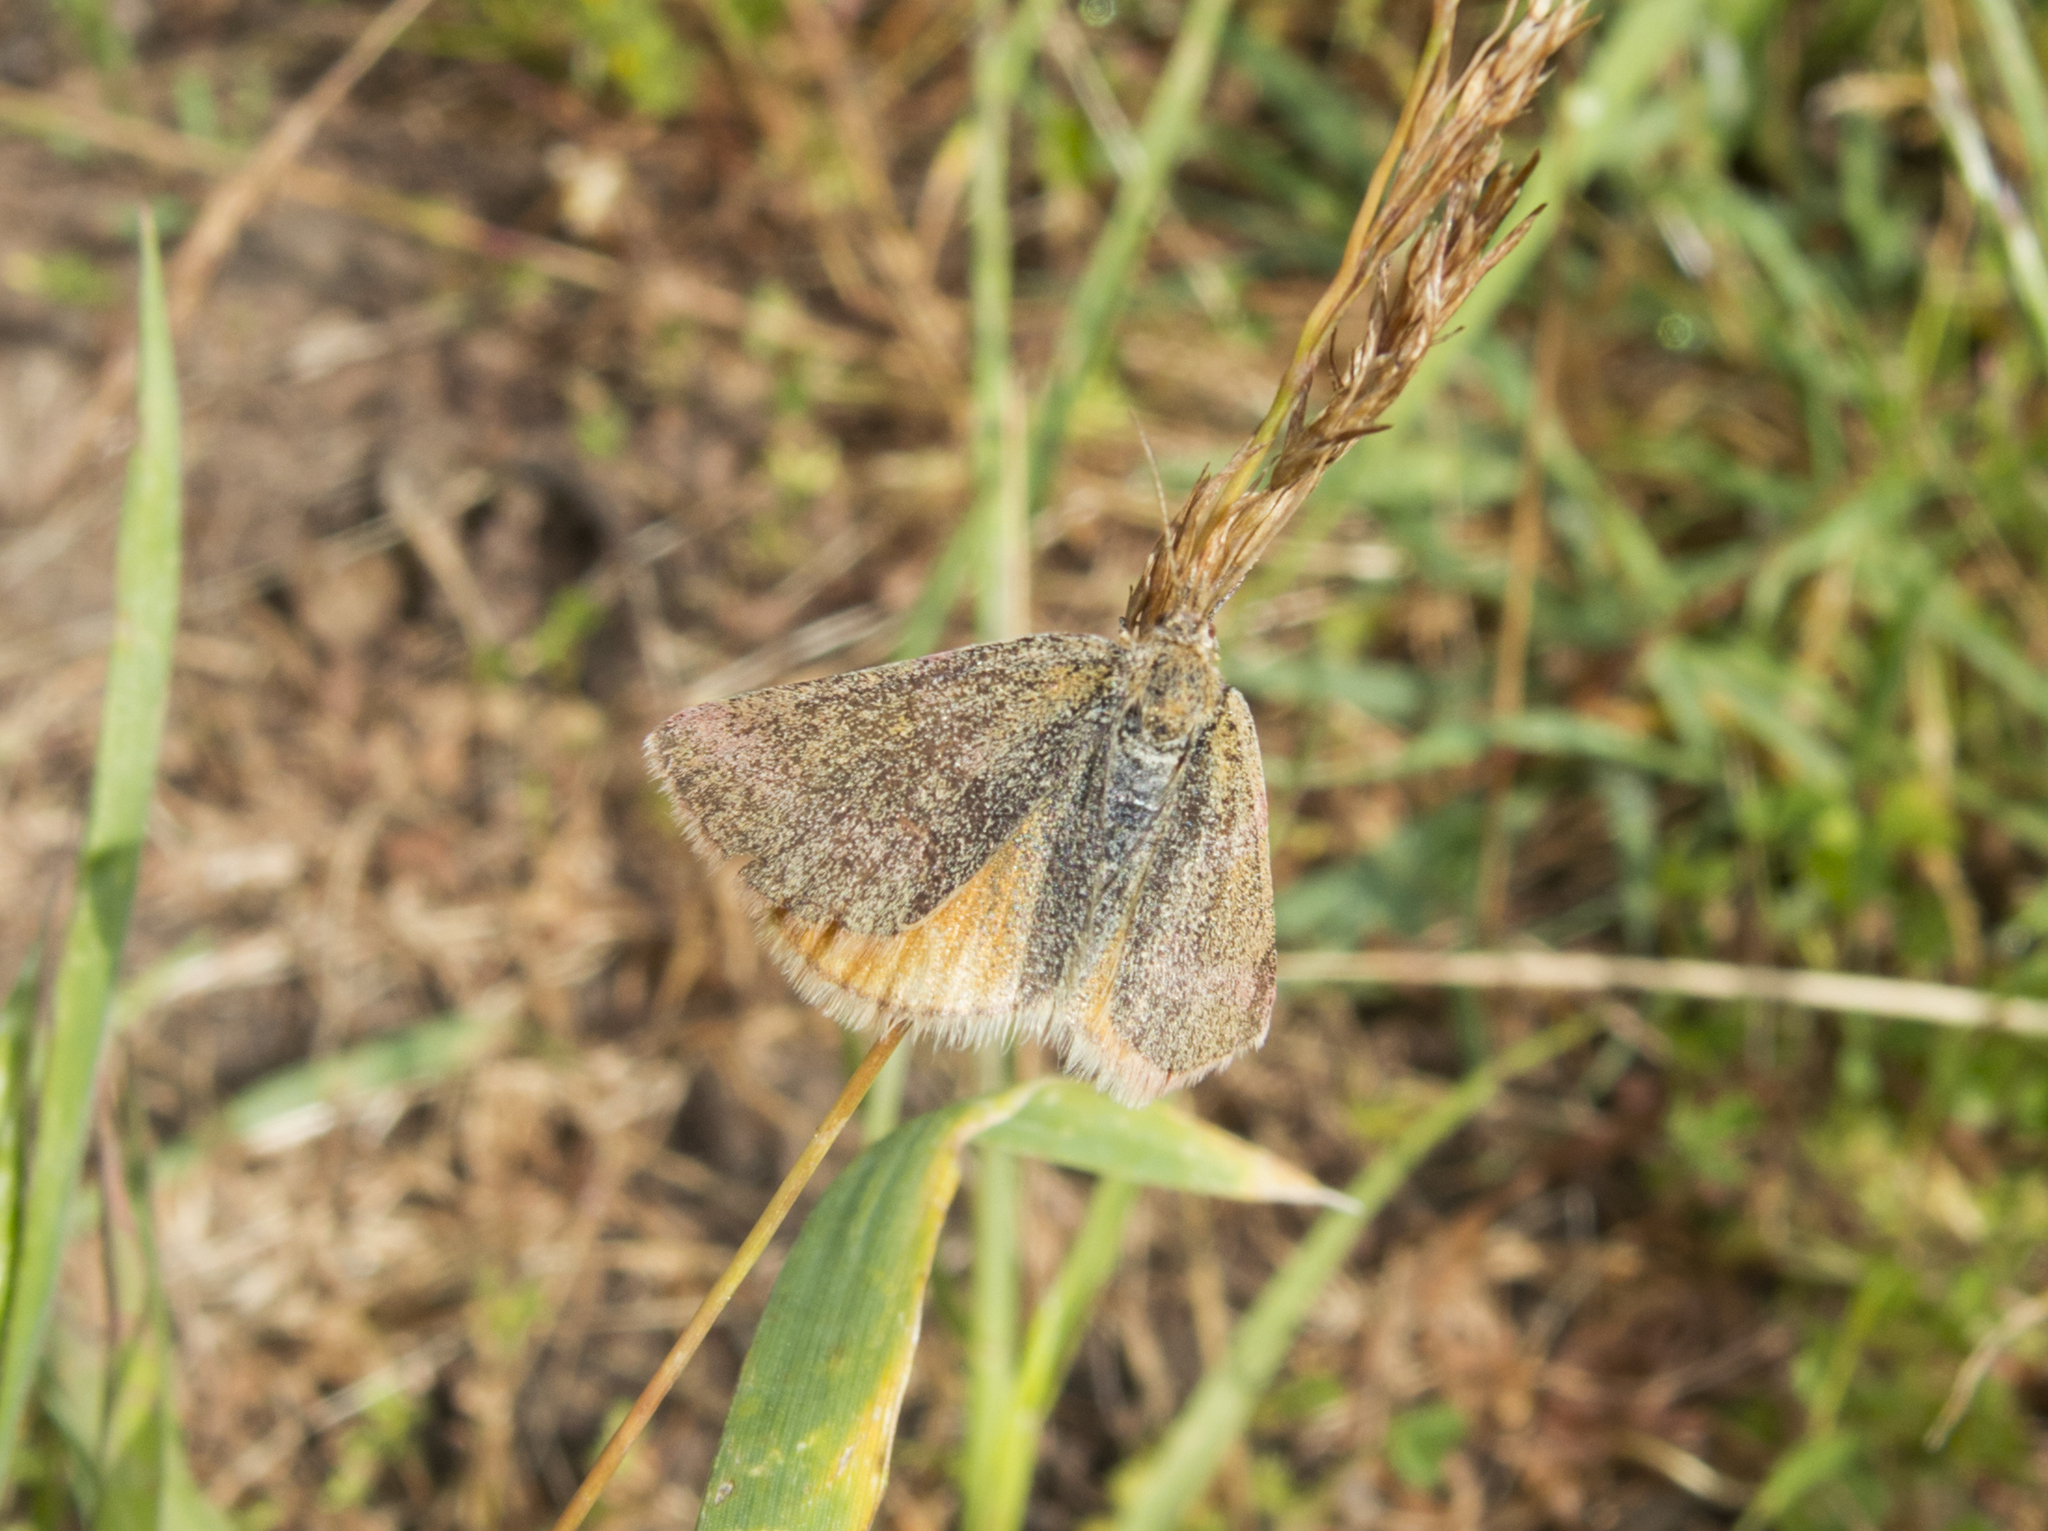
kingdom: Animalia
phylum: Arthropoda
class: Insecta
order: Lepidoptera
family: Geometridae
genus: Lythria
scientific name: Lythria purpuraria
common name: Purple-barred yellow
